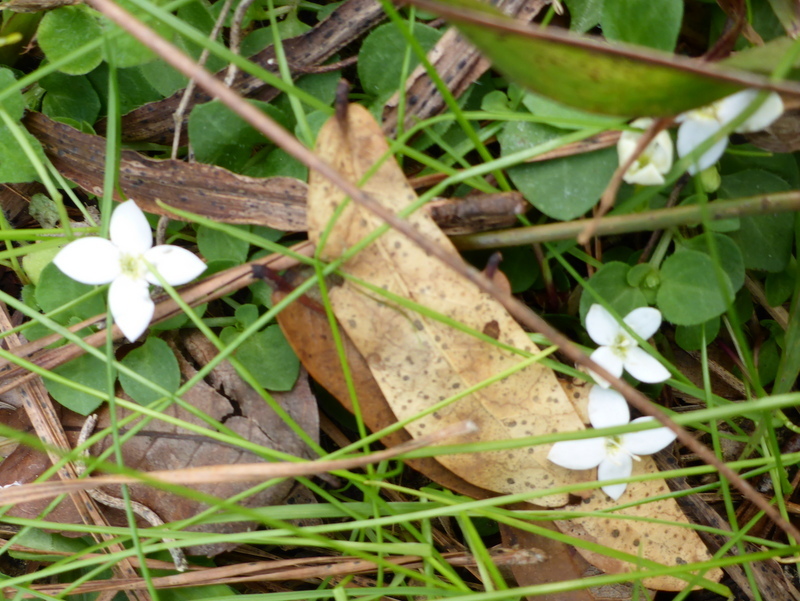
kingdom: Plantae
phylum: Tracheophyta
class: Magnoliopsida
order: Gentianales
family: Rubiaceae
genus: Houstonia
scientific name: Houstonia procumbens
